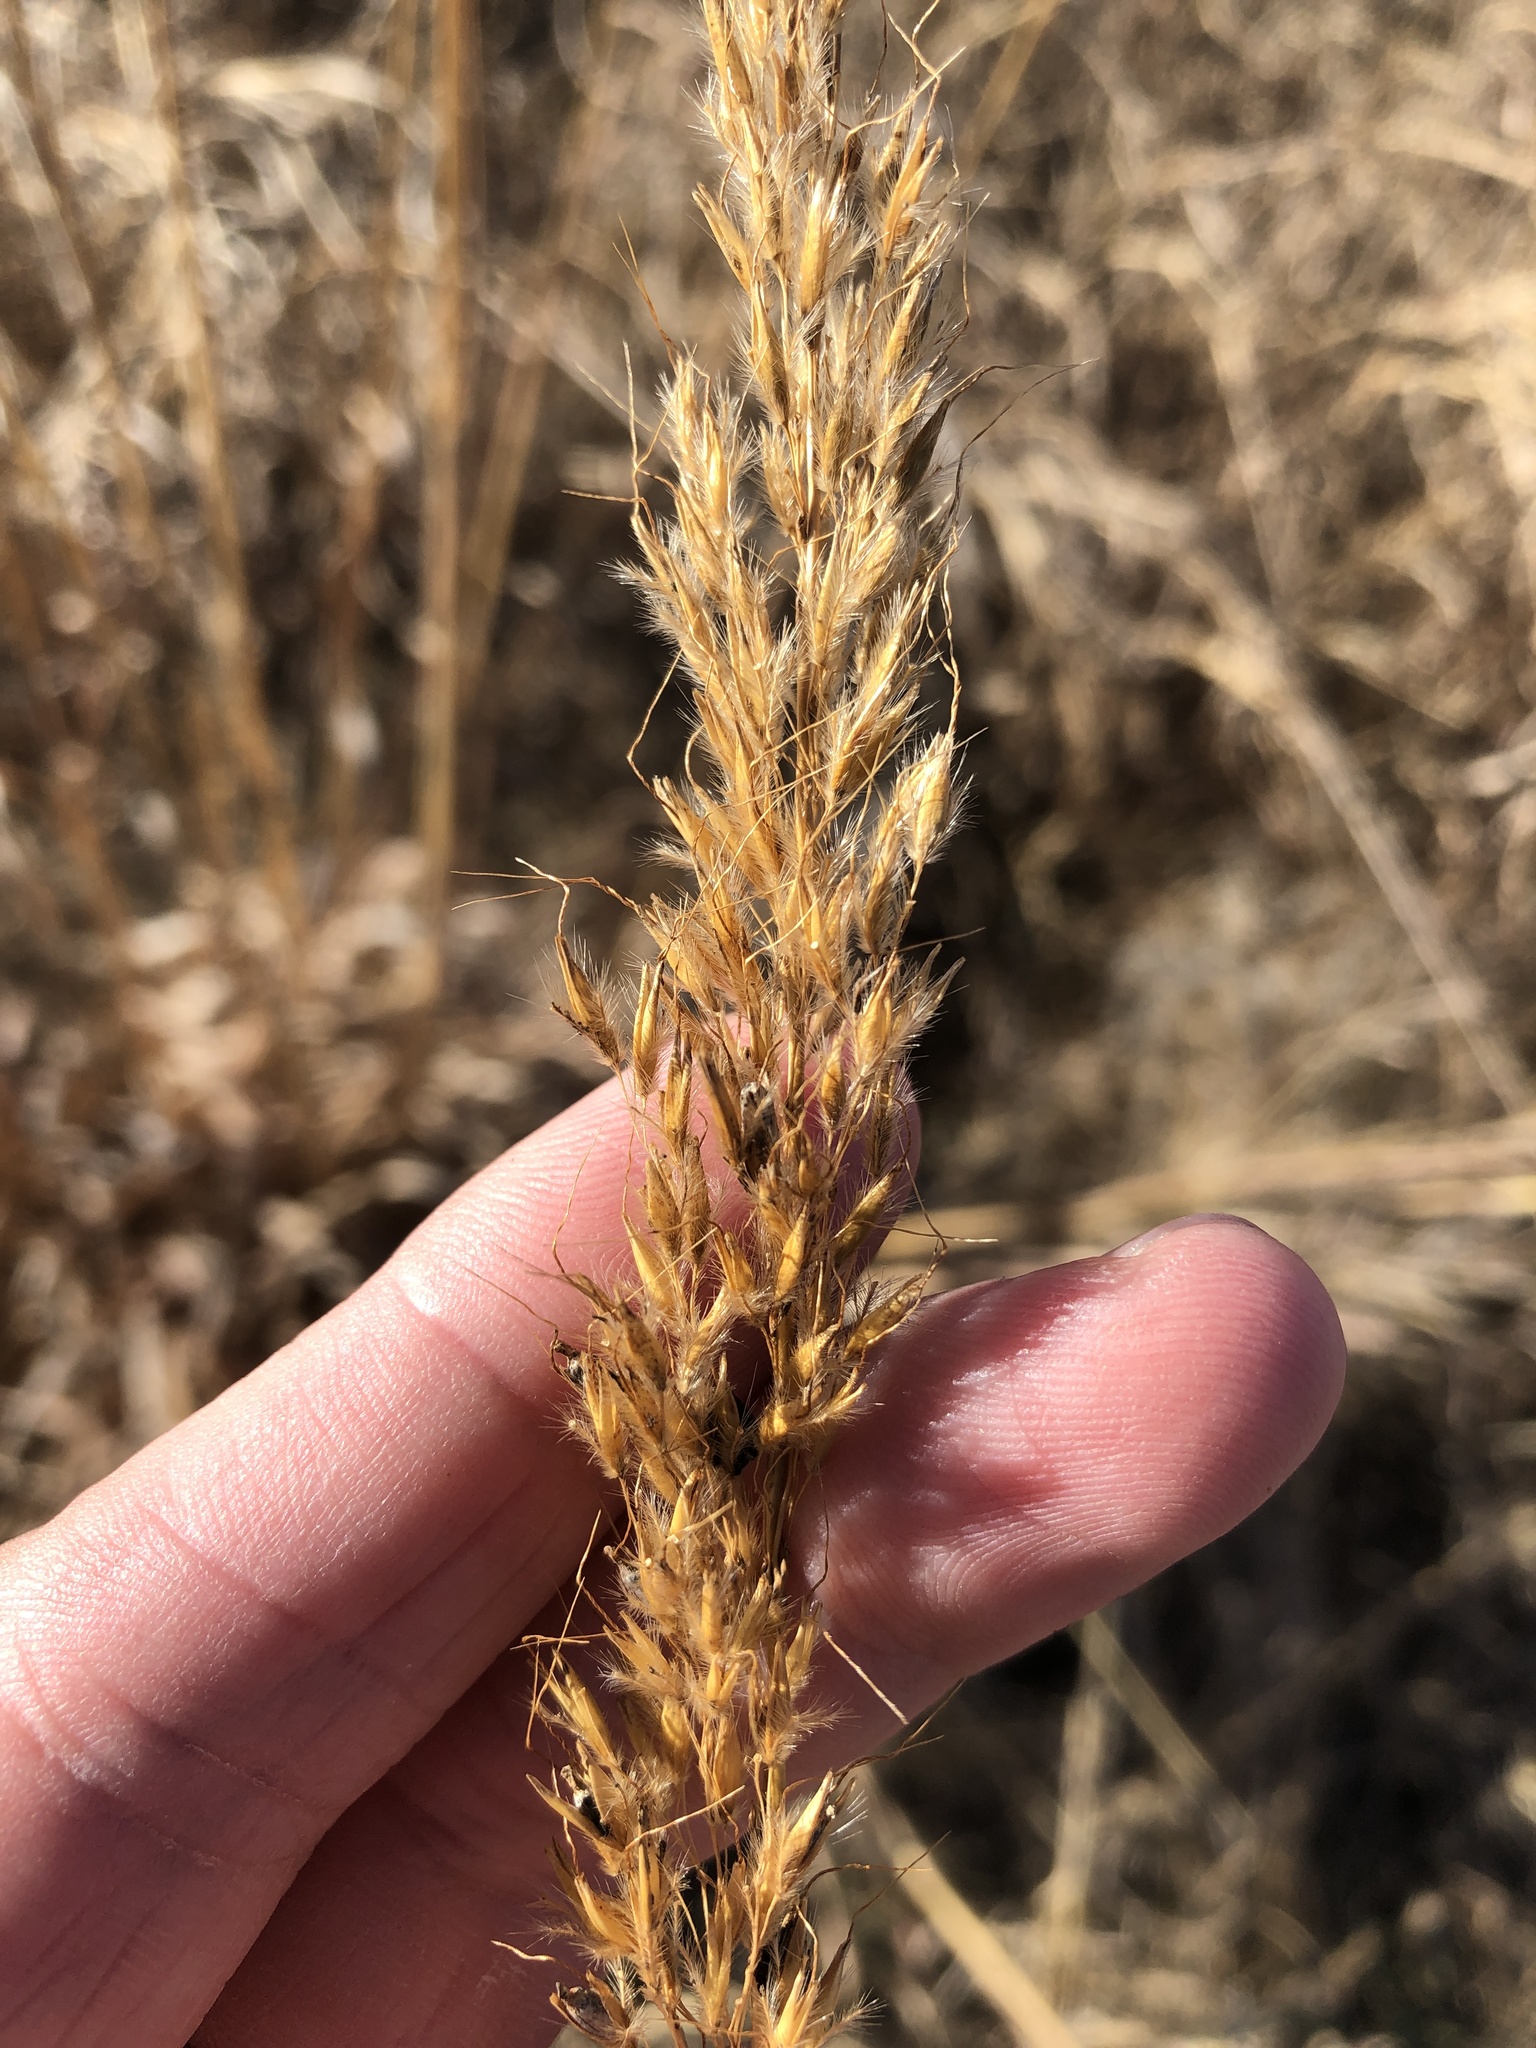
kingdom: Plantae
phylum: Tracheophyta
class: Liliopsida
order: Poales
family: Poaceae
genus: Sorghastrum
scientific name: Sorghastrum nutans
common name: Indian grass
